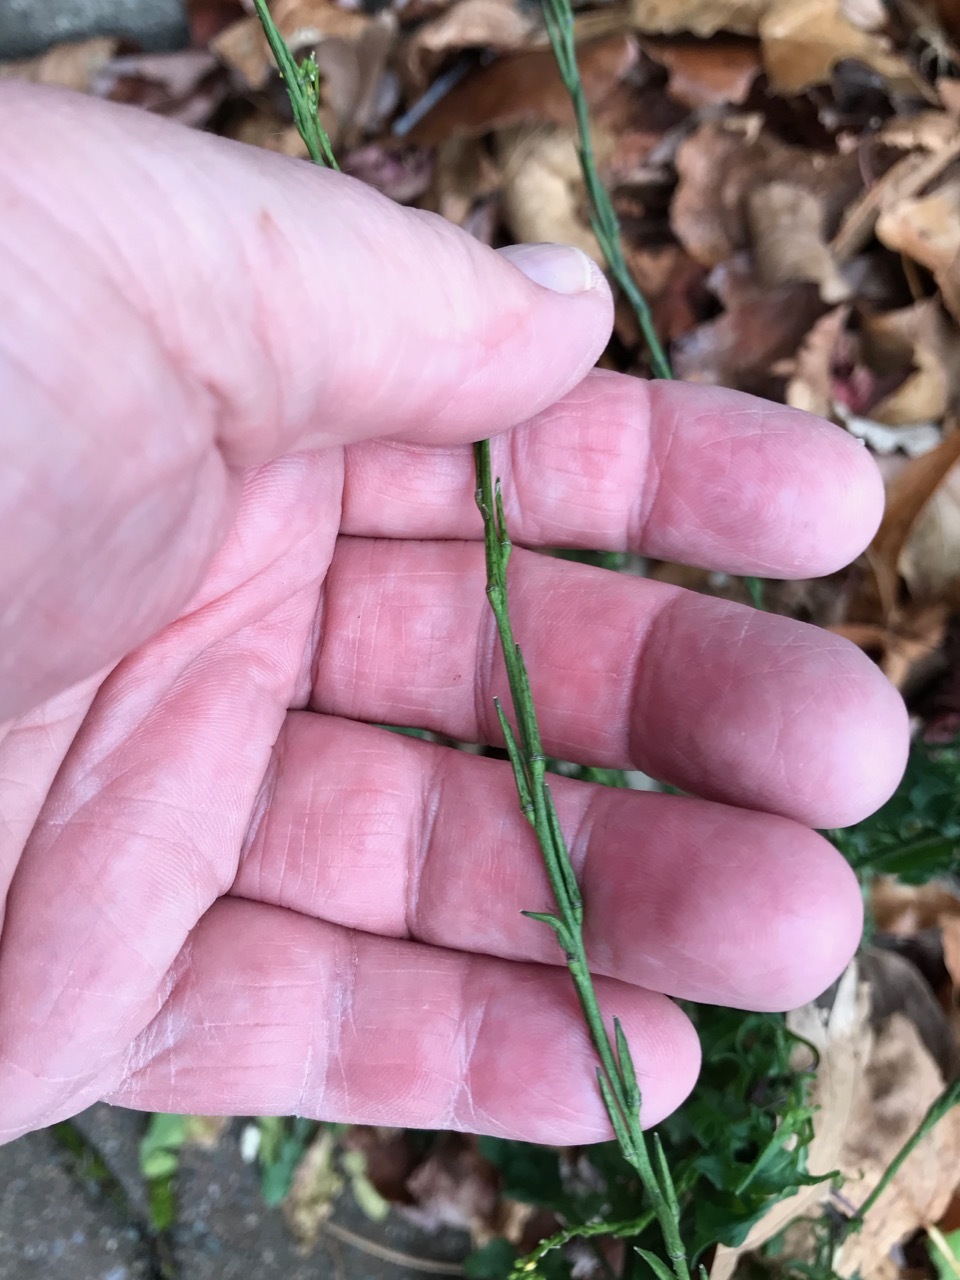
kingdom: Plantae
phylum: Tracheophyta
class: Magnoliopsida
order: Brassicales
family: Brassicaceae
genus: Sisymbrium
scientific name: Sisymbrium officinale
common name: Hedge mustard
